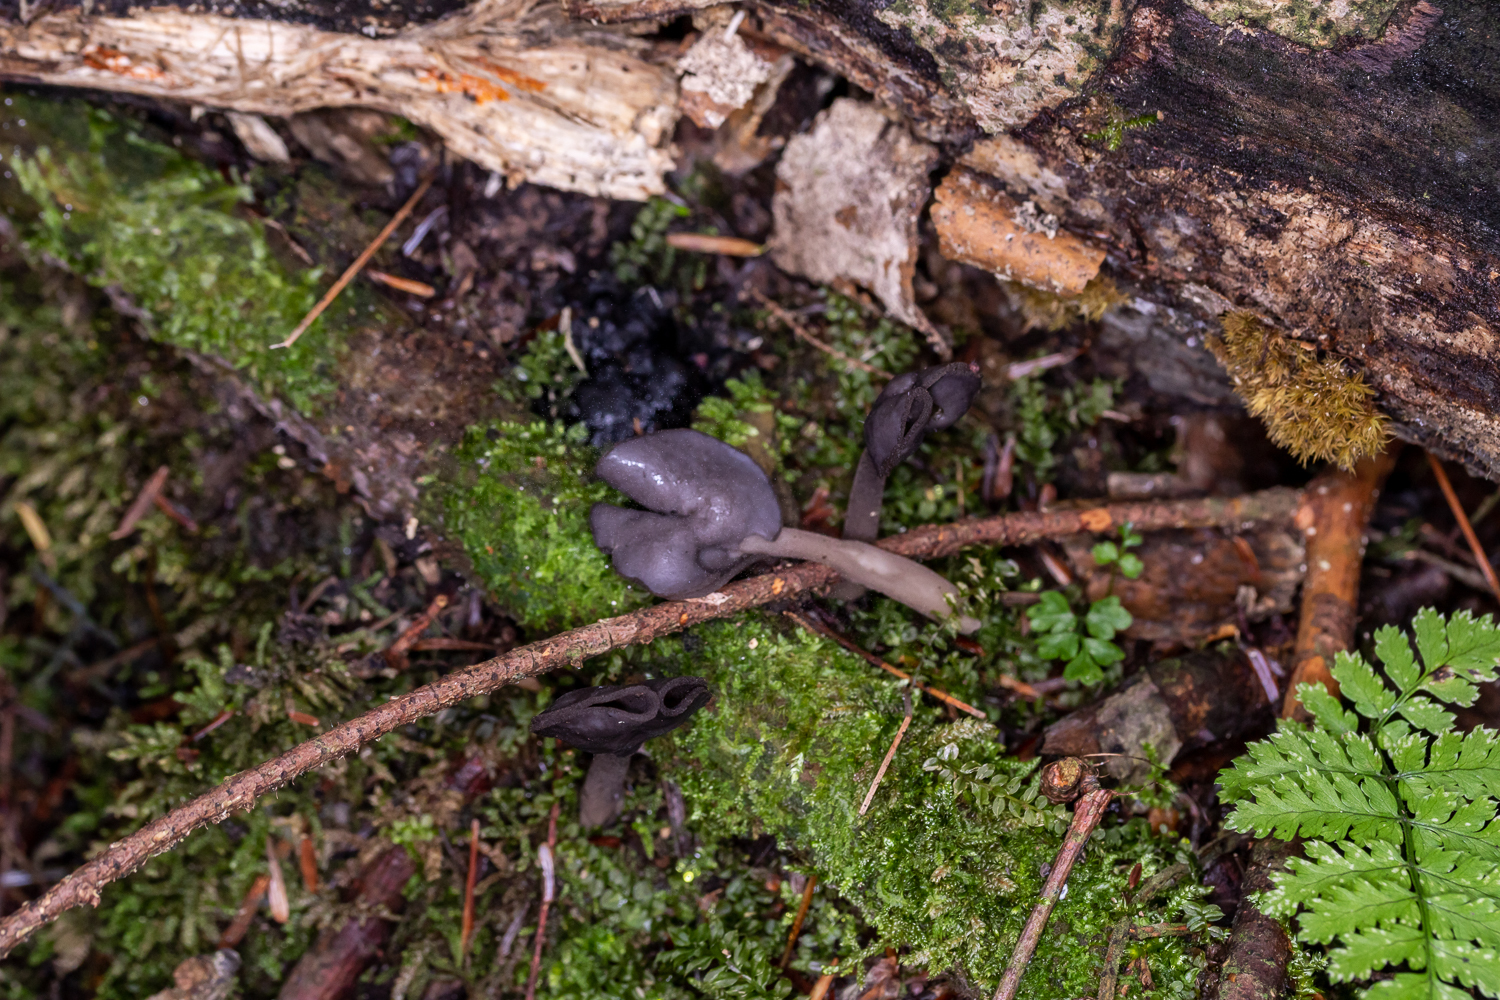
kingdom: Fungi
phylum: Ascomycota
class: Pezizomycetes
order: Pezizales
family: Helvellaceae
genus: Helvella
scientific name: Helvella atra
